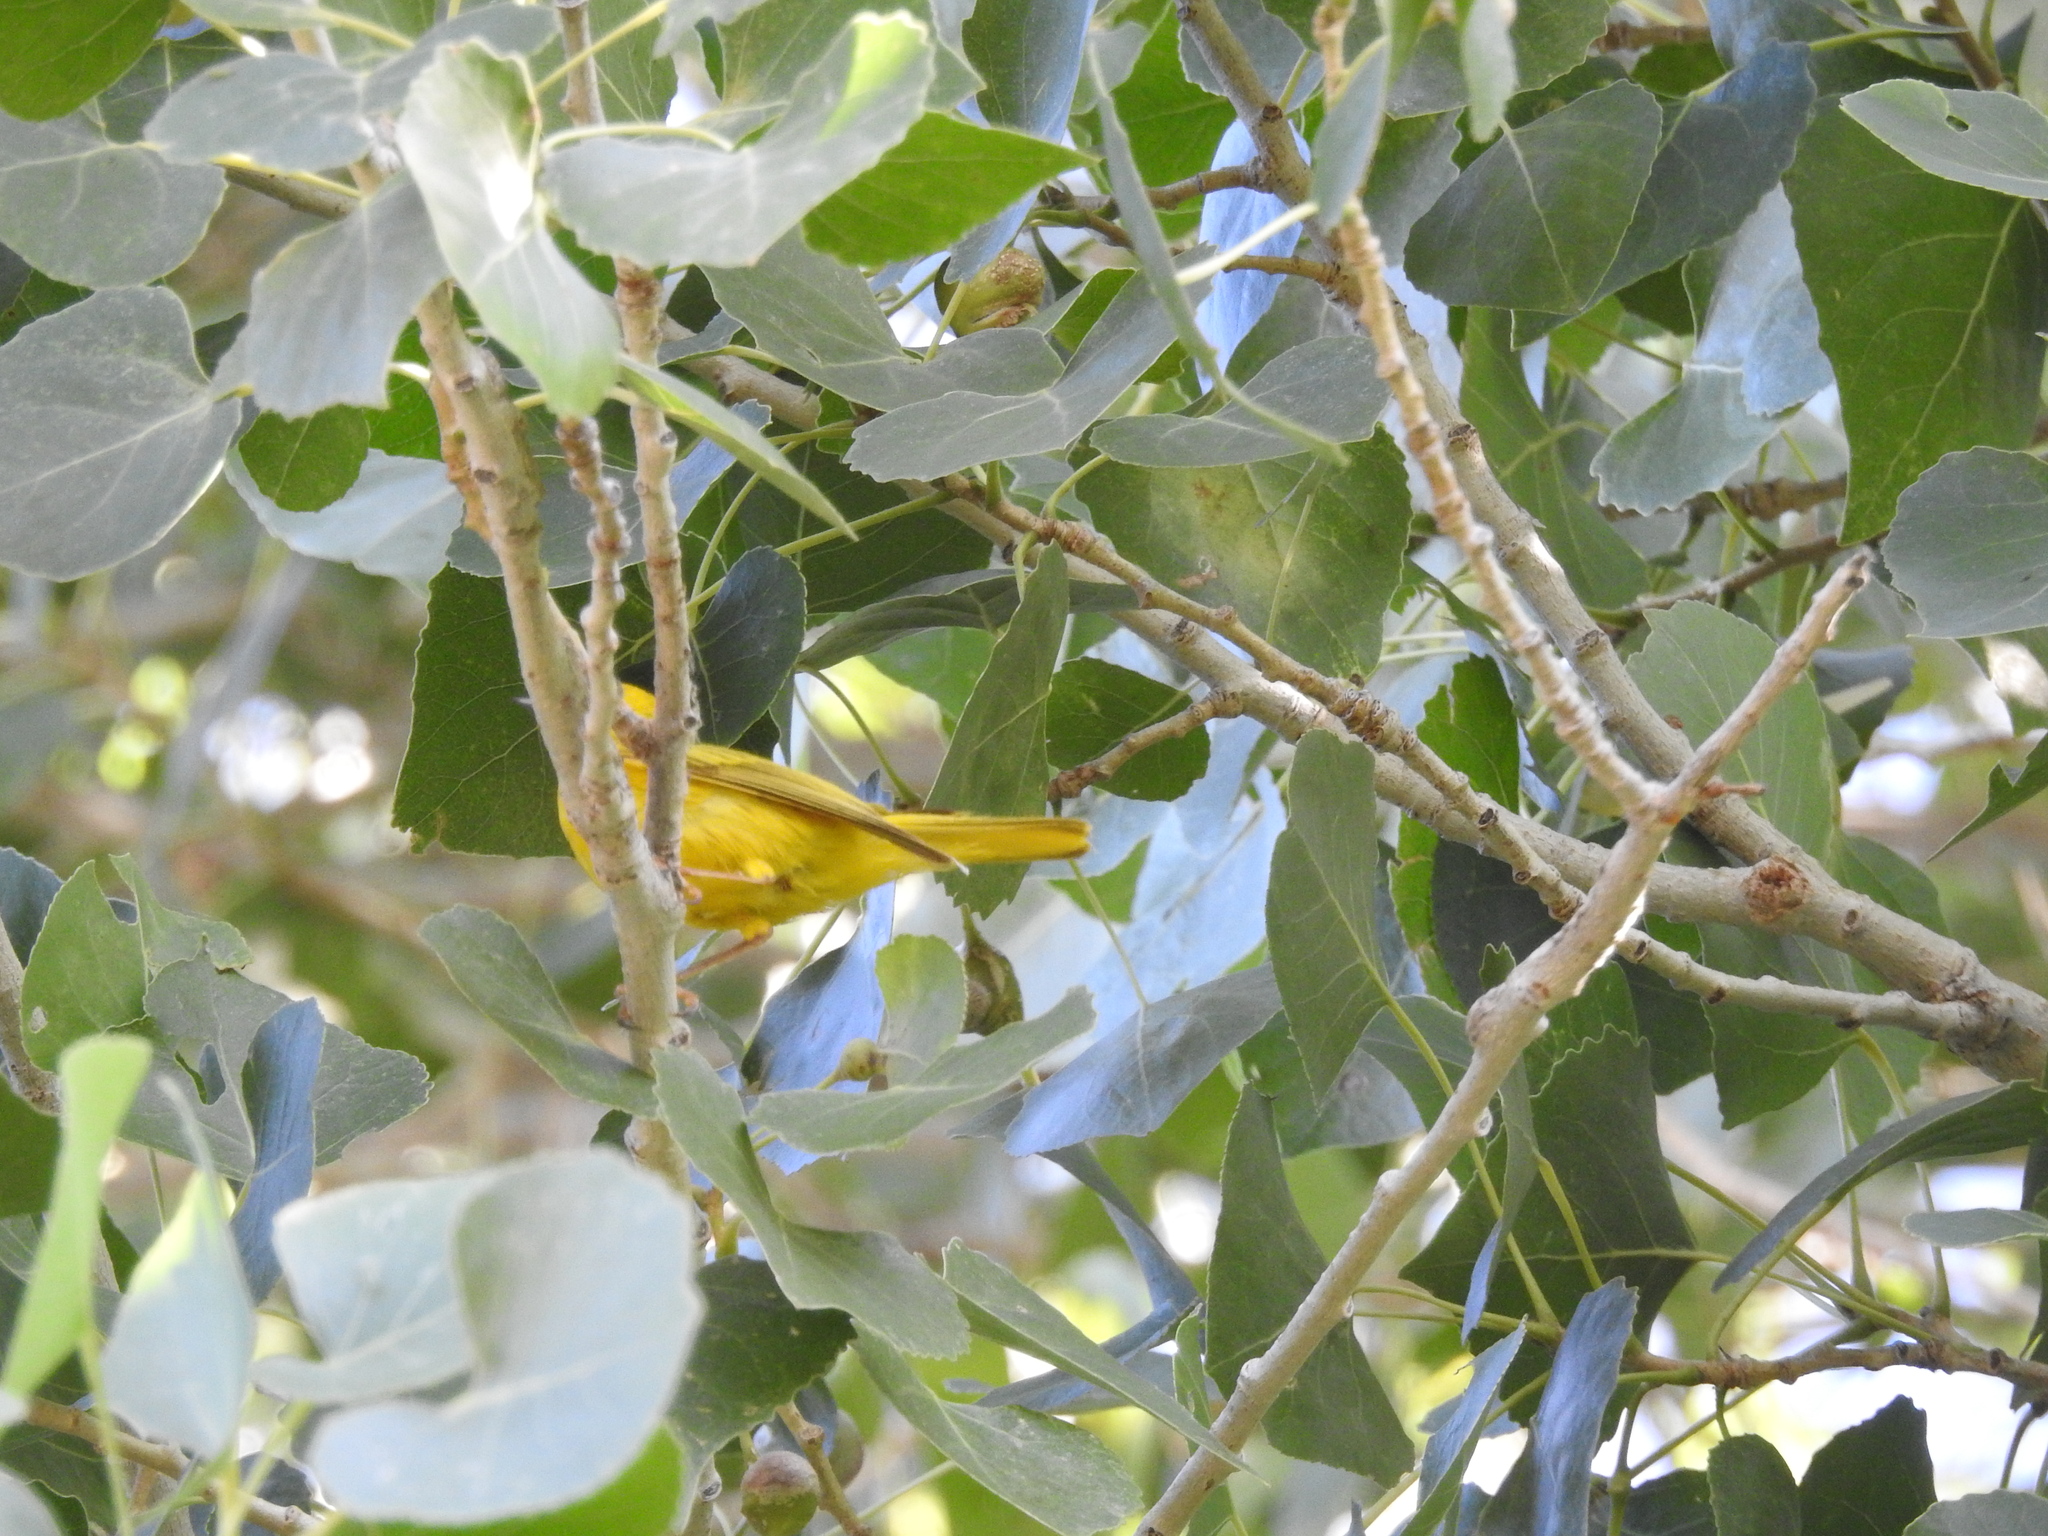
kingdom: Animalia
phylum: Chordata
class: Aves
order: Passeriformes
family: Parulidae
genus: Setophaga
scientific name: Setophaga petechia
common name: Yellow warbler
